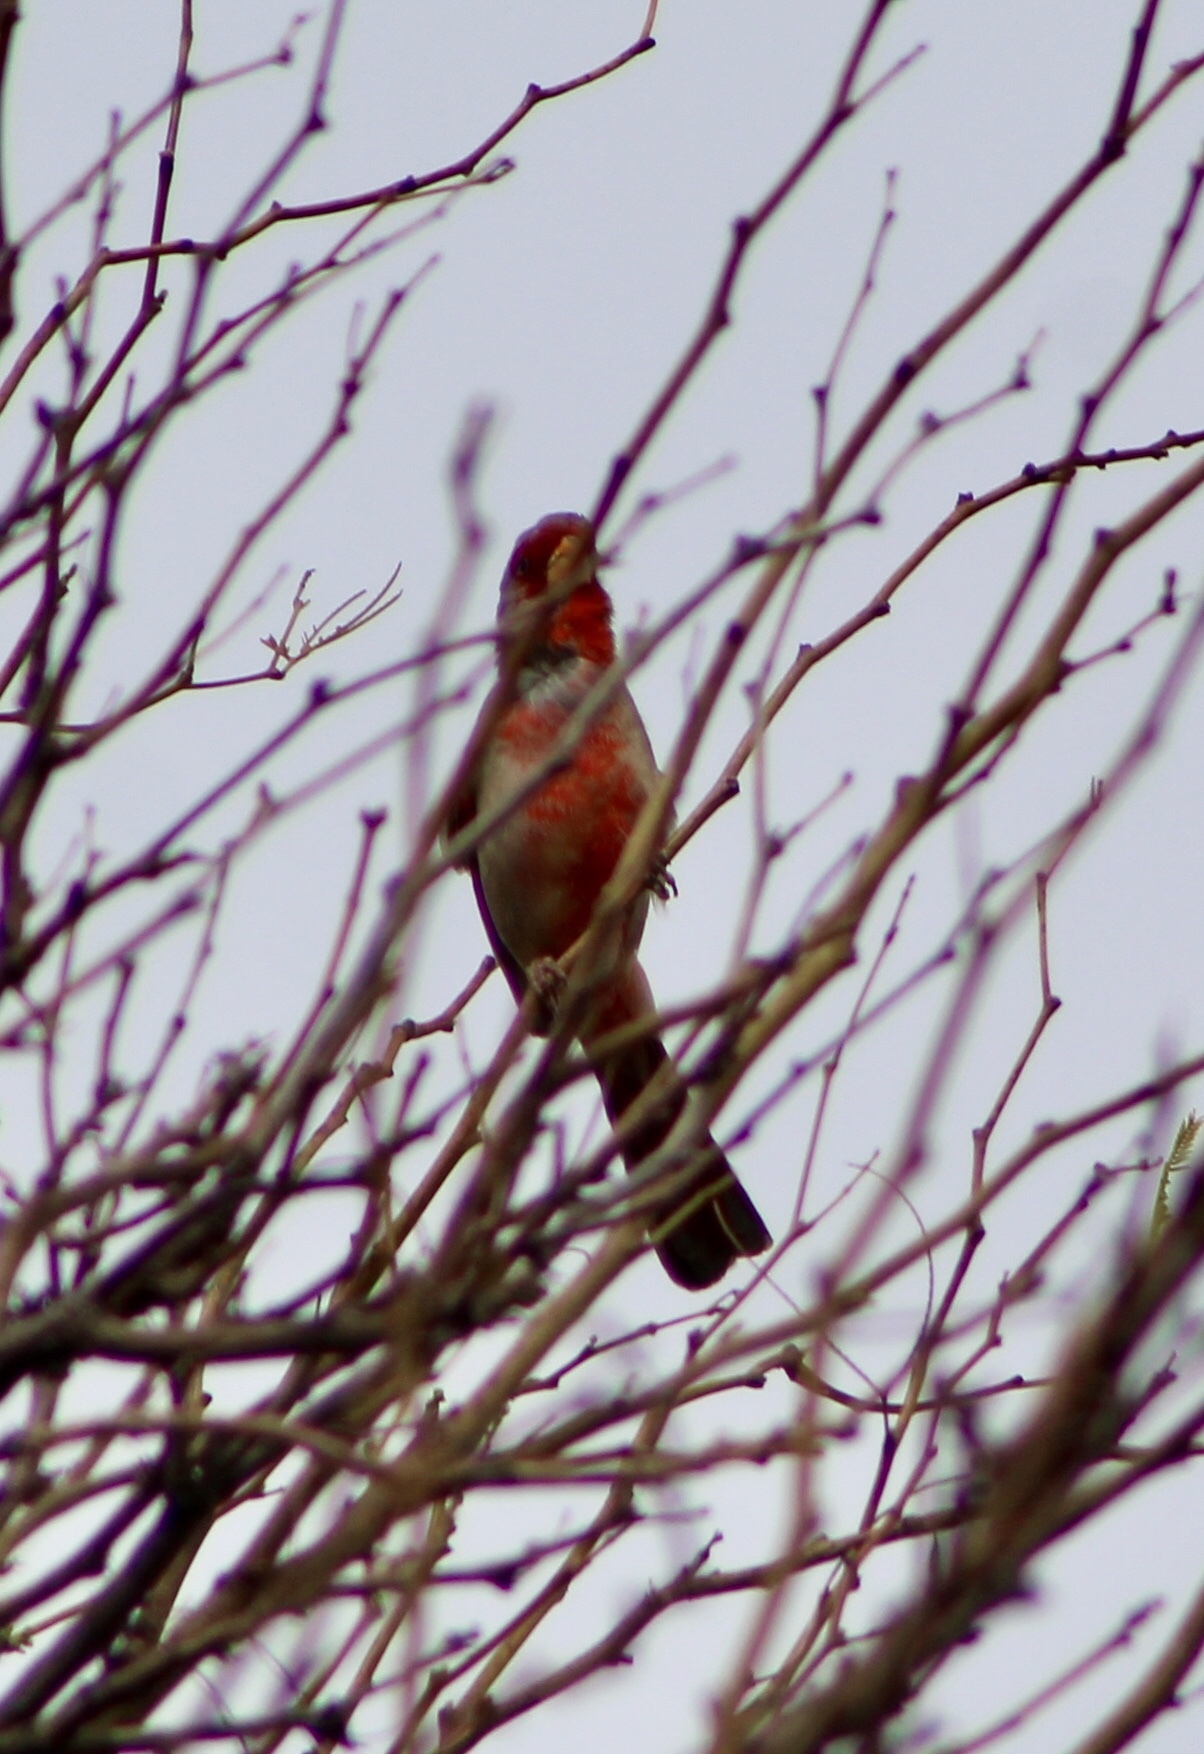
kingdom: Animalia
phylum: Chordata
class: Aves
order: Passeriformes
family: Cardinalidae
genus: Cardinalis
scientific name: Cardinalis sinuatus
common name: Pyrrhuloxia
